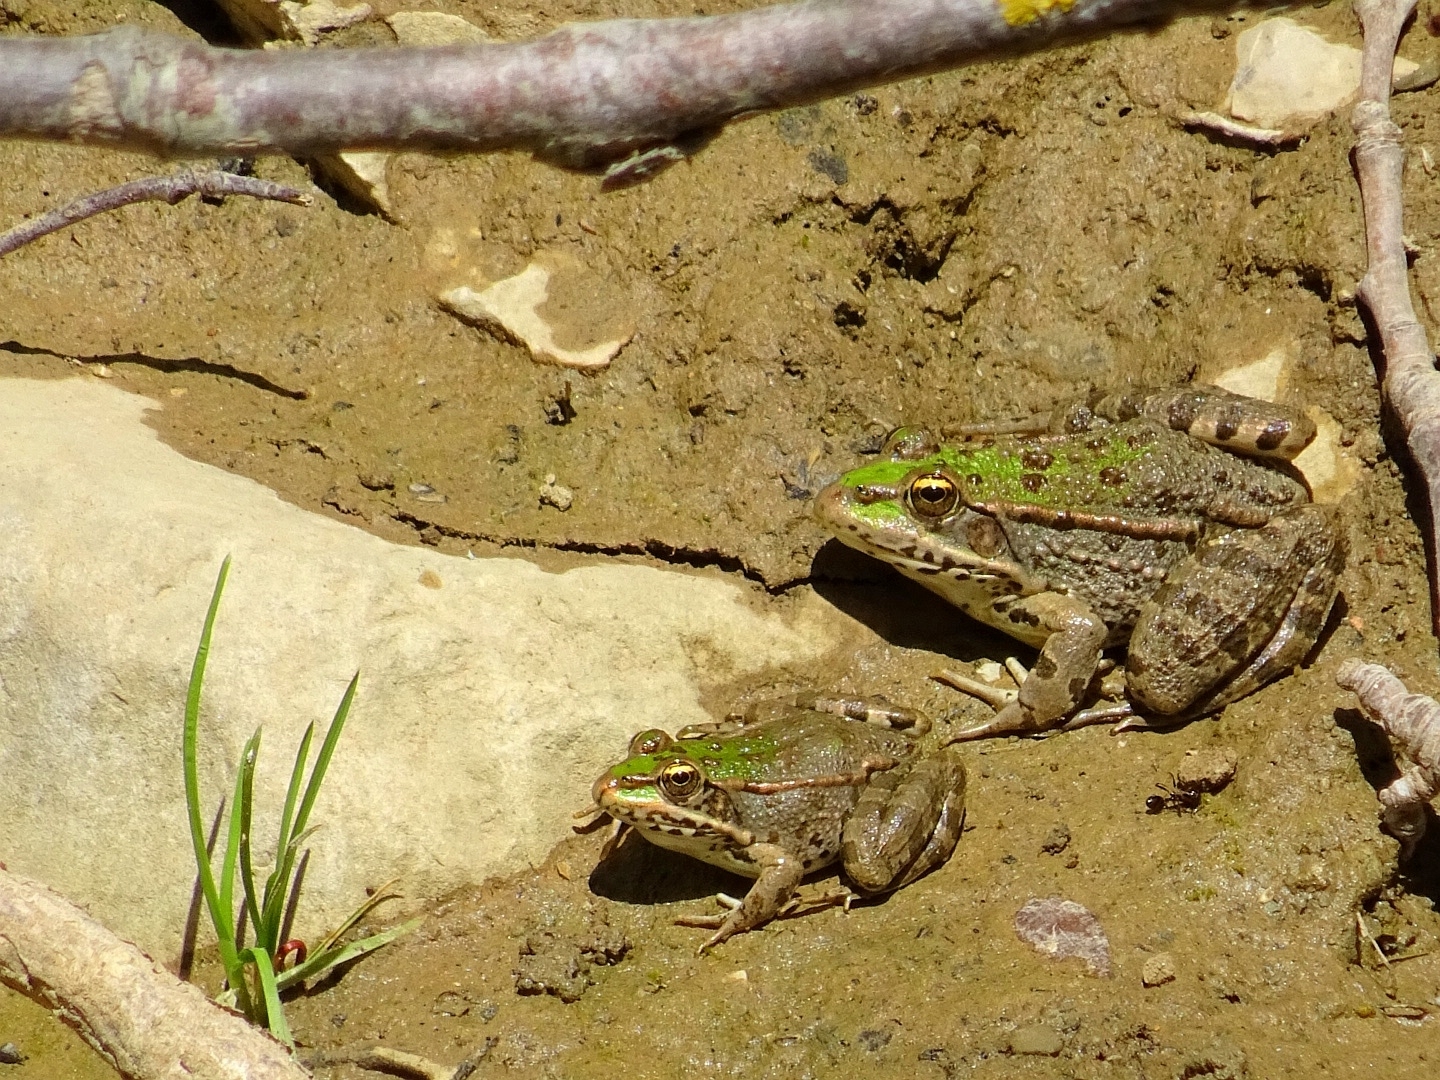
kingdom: Animalia
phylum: Chordata
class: Amphibia
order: Anura
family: Ranidae
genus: Pelophylax
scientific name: Pelophylax ridibundus
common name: Marsh frog
